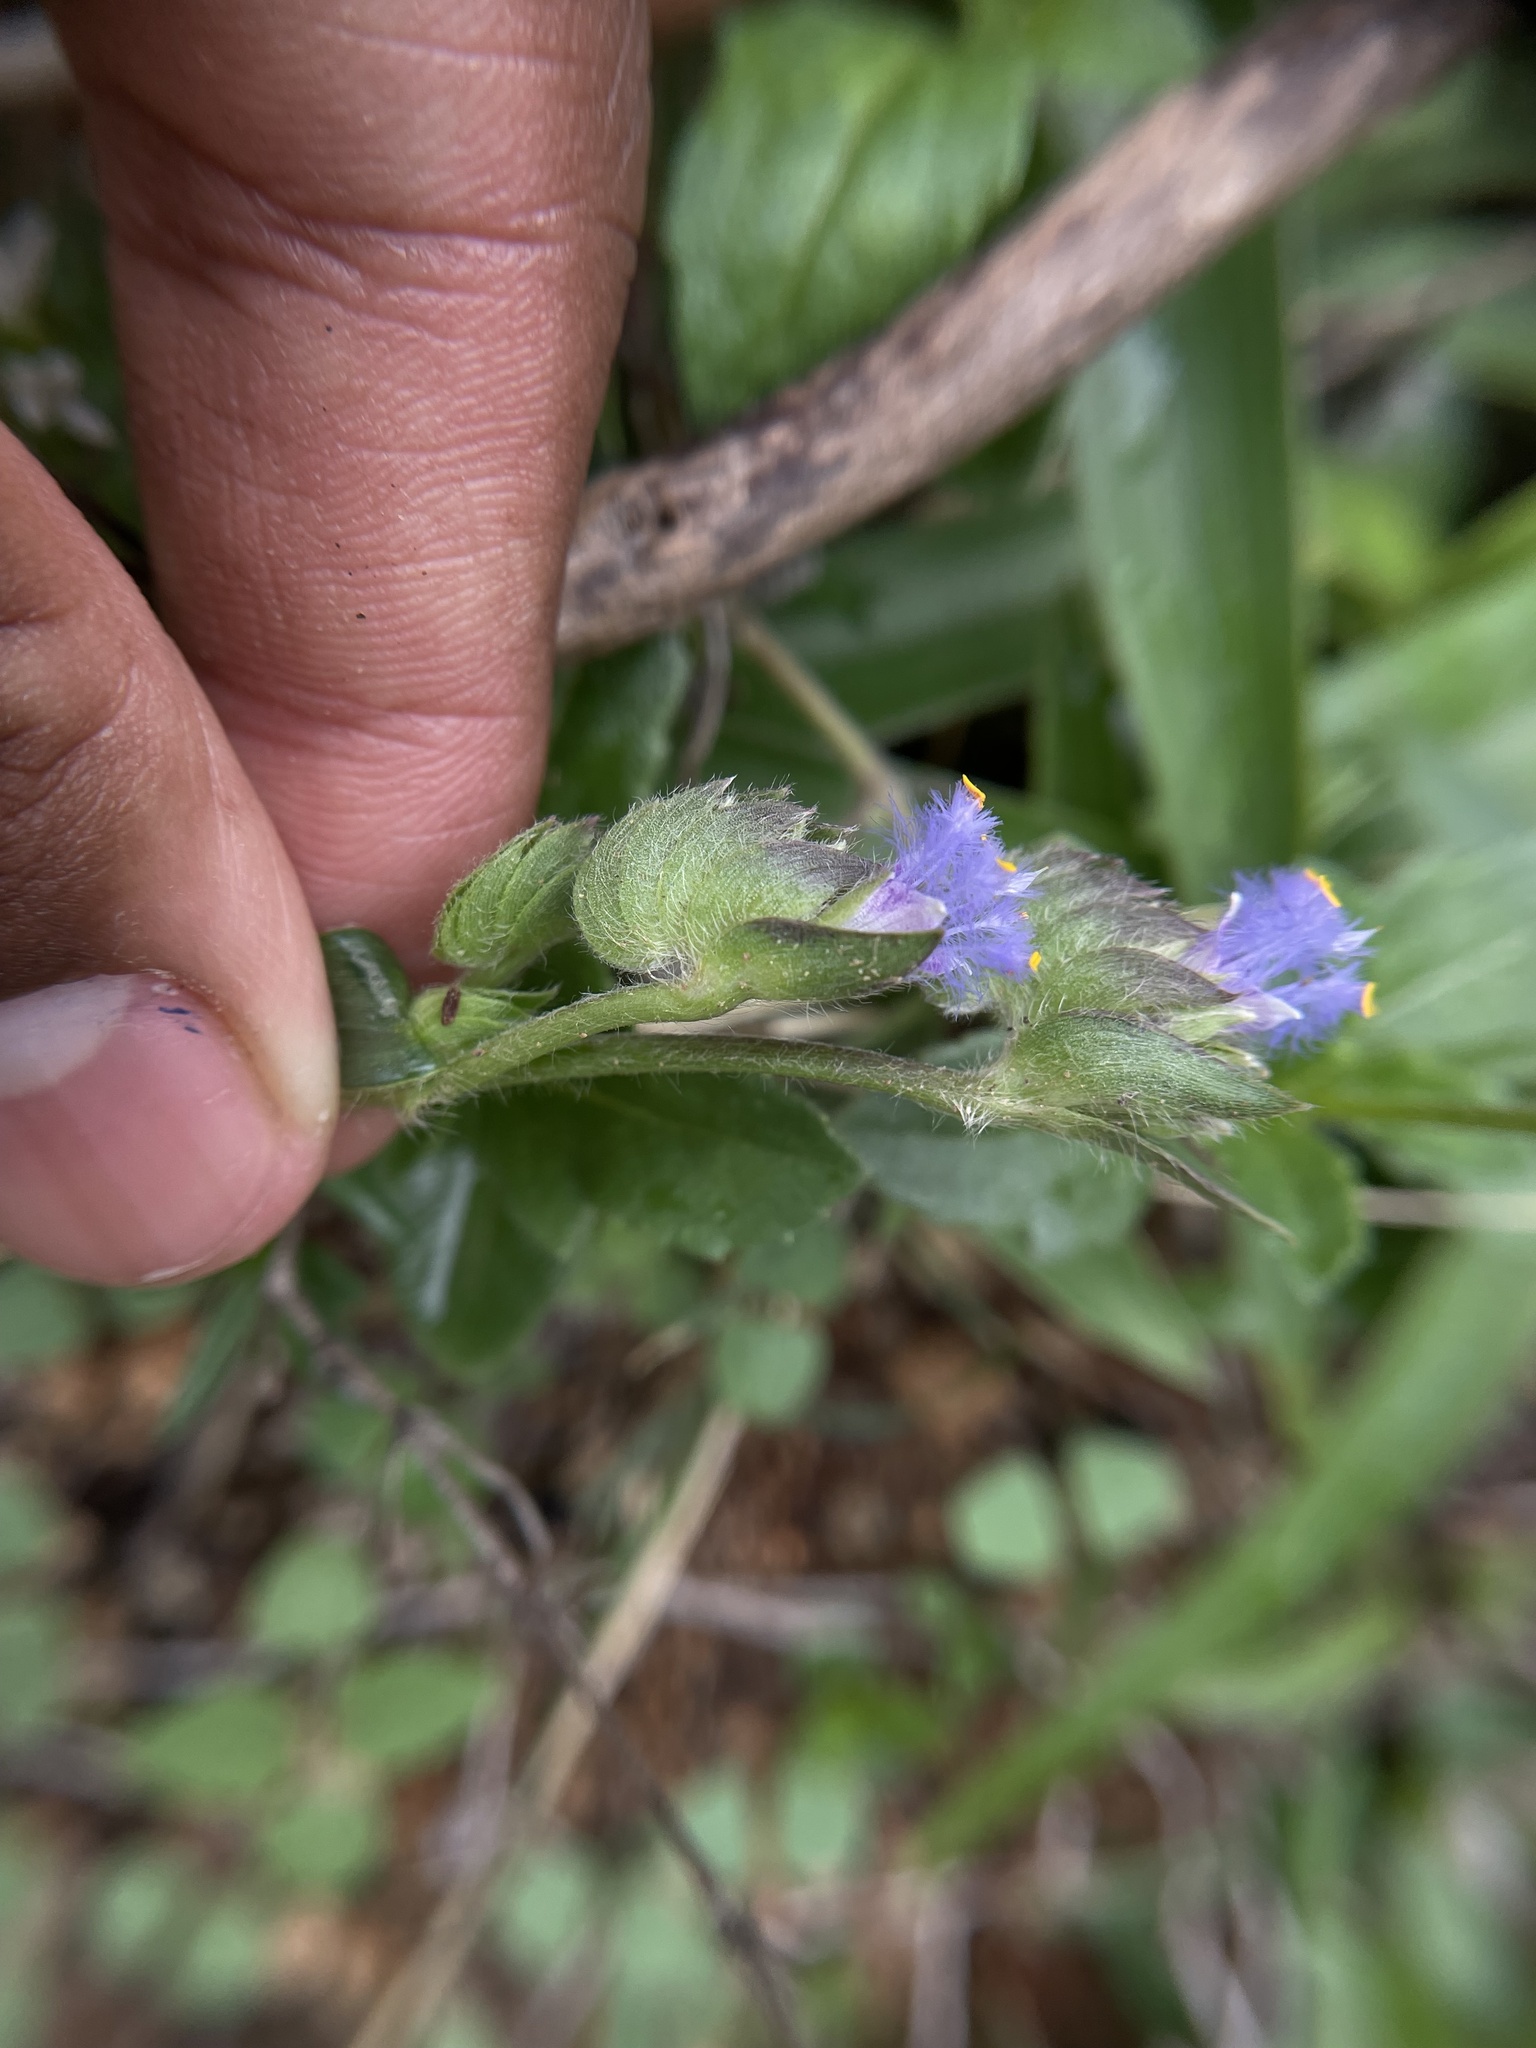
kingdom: Plantae
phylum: Tracheophyta
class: Liliopsida
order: Commelinales
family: Commelinaceae
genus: Cyanotis
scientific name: Cyanotis adscendens
